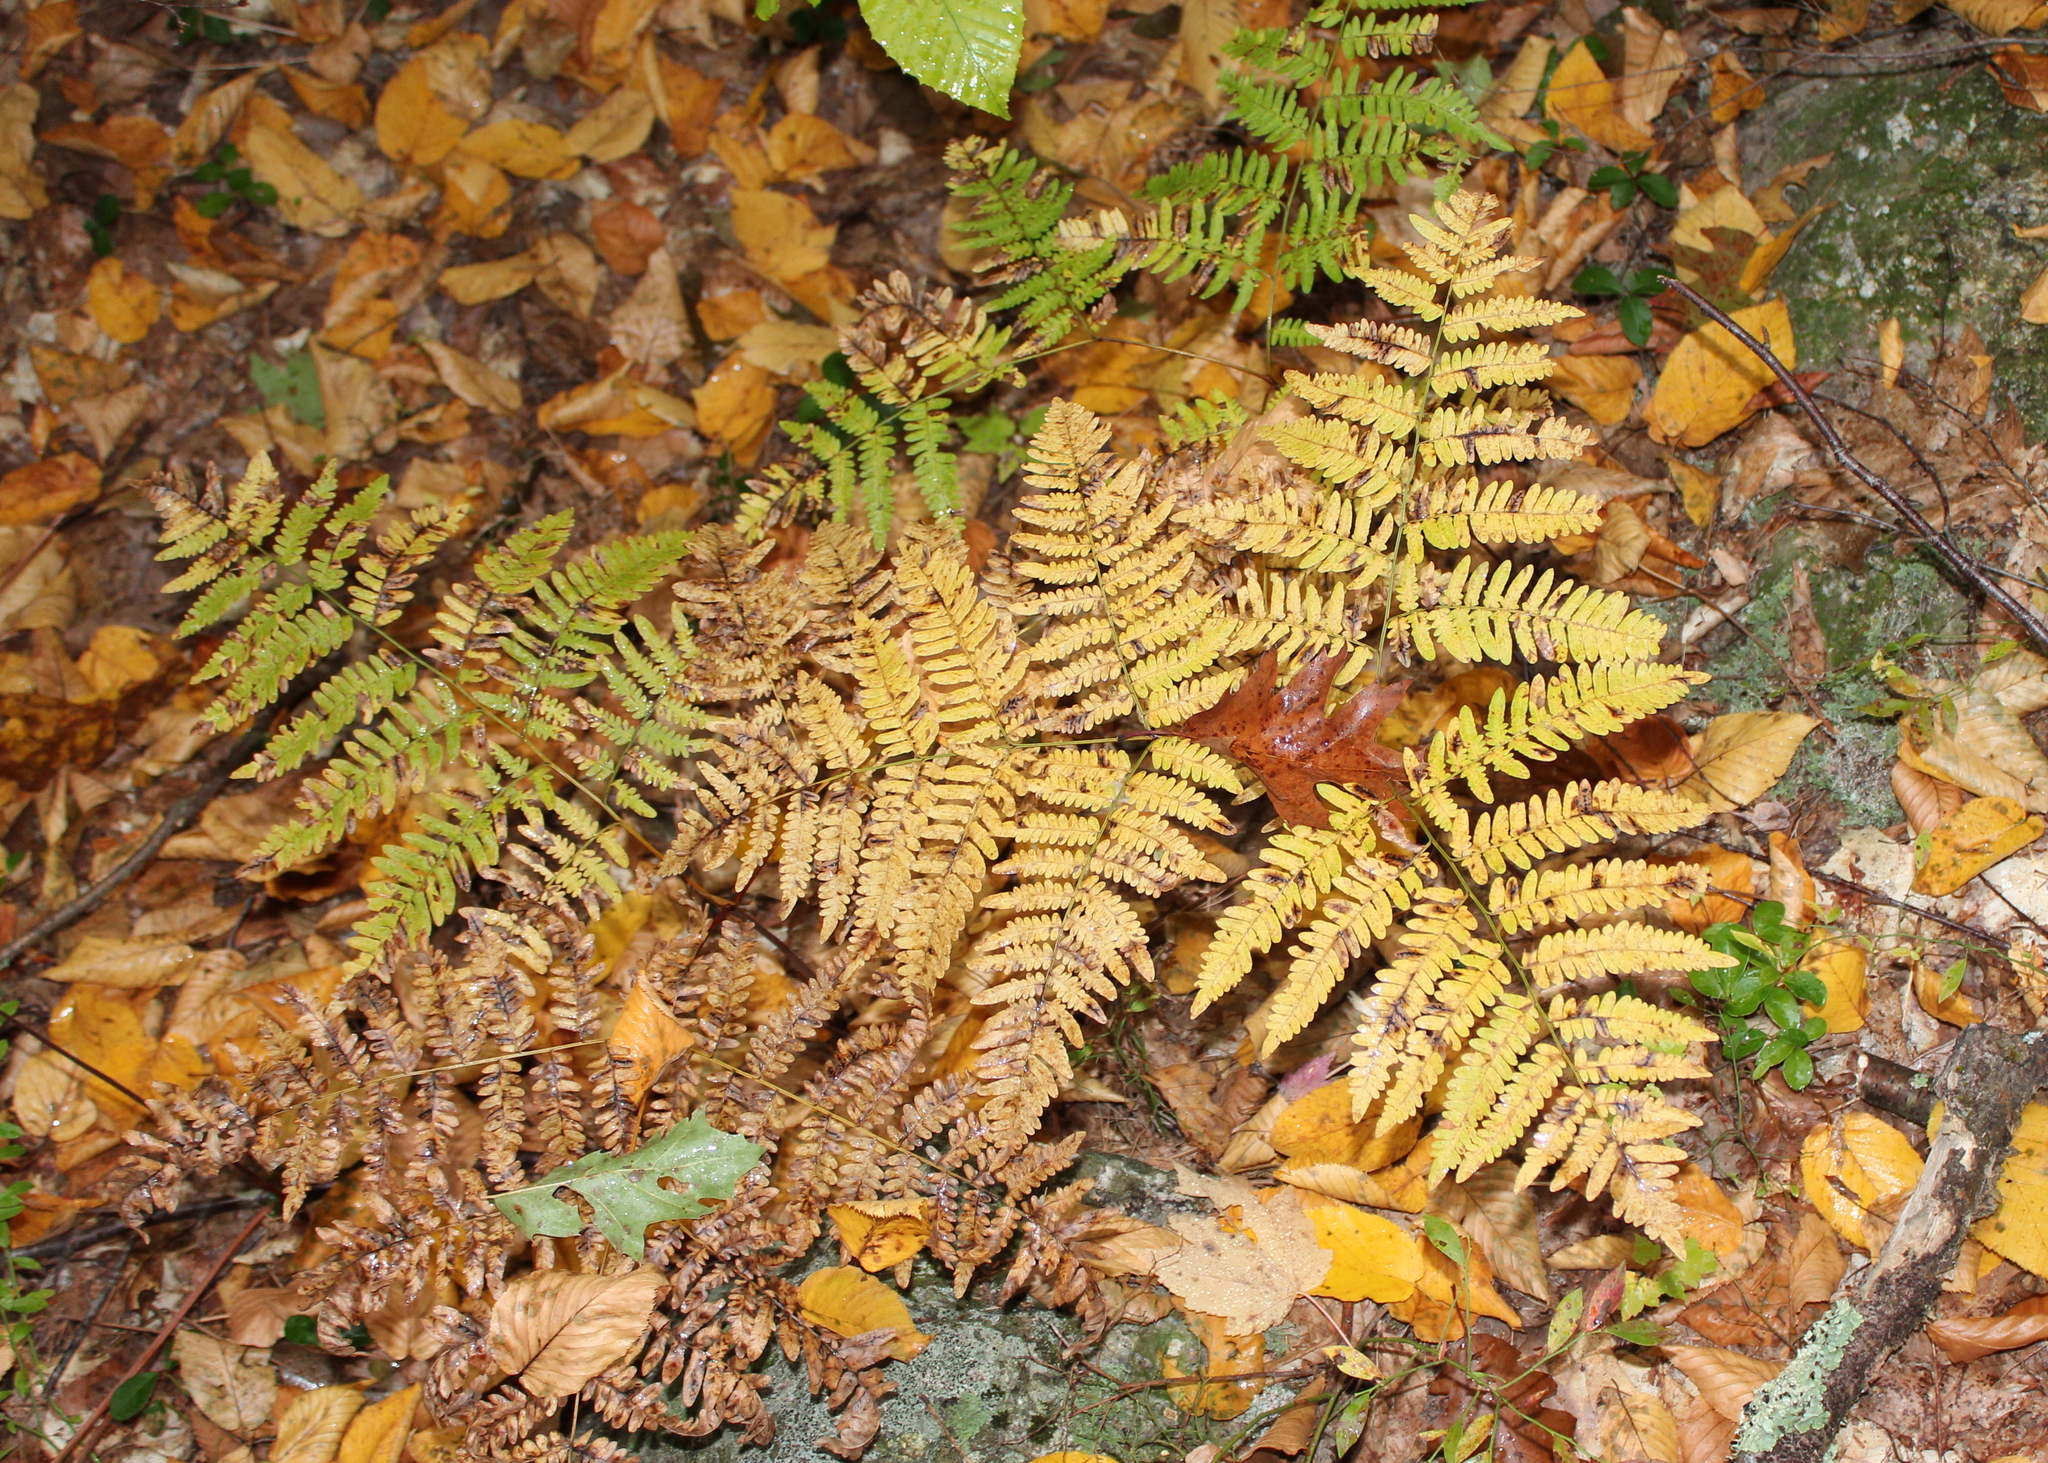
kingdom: Plantae
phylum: Tracheophyta
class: Polypodiopsida
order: Polypodiales
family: Dennstaedtiaceae
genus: Pteridium
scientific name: Pteridium aquilinum
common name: Bracken
